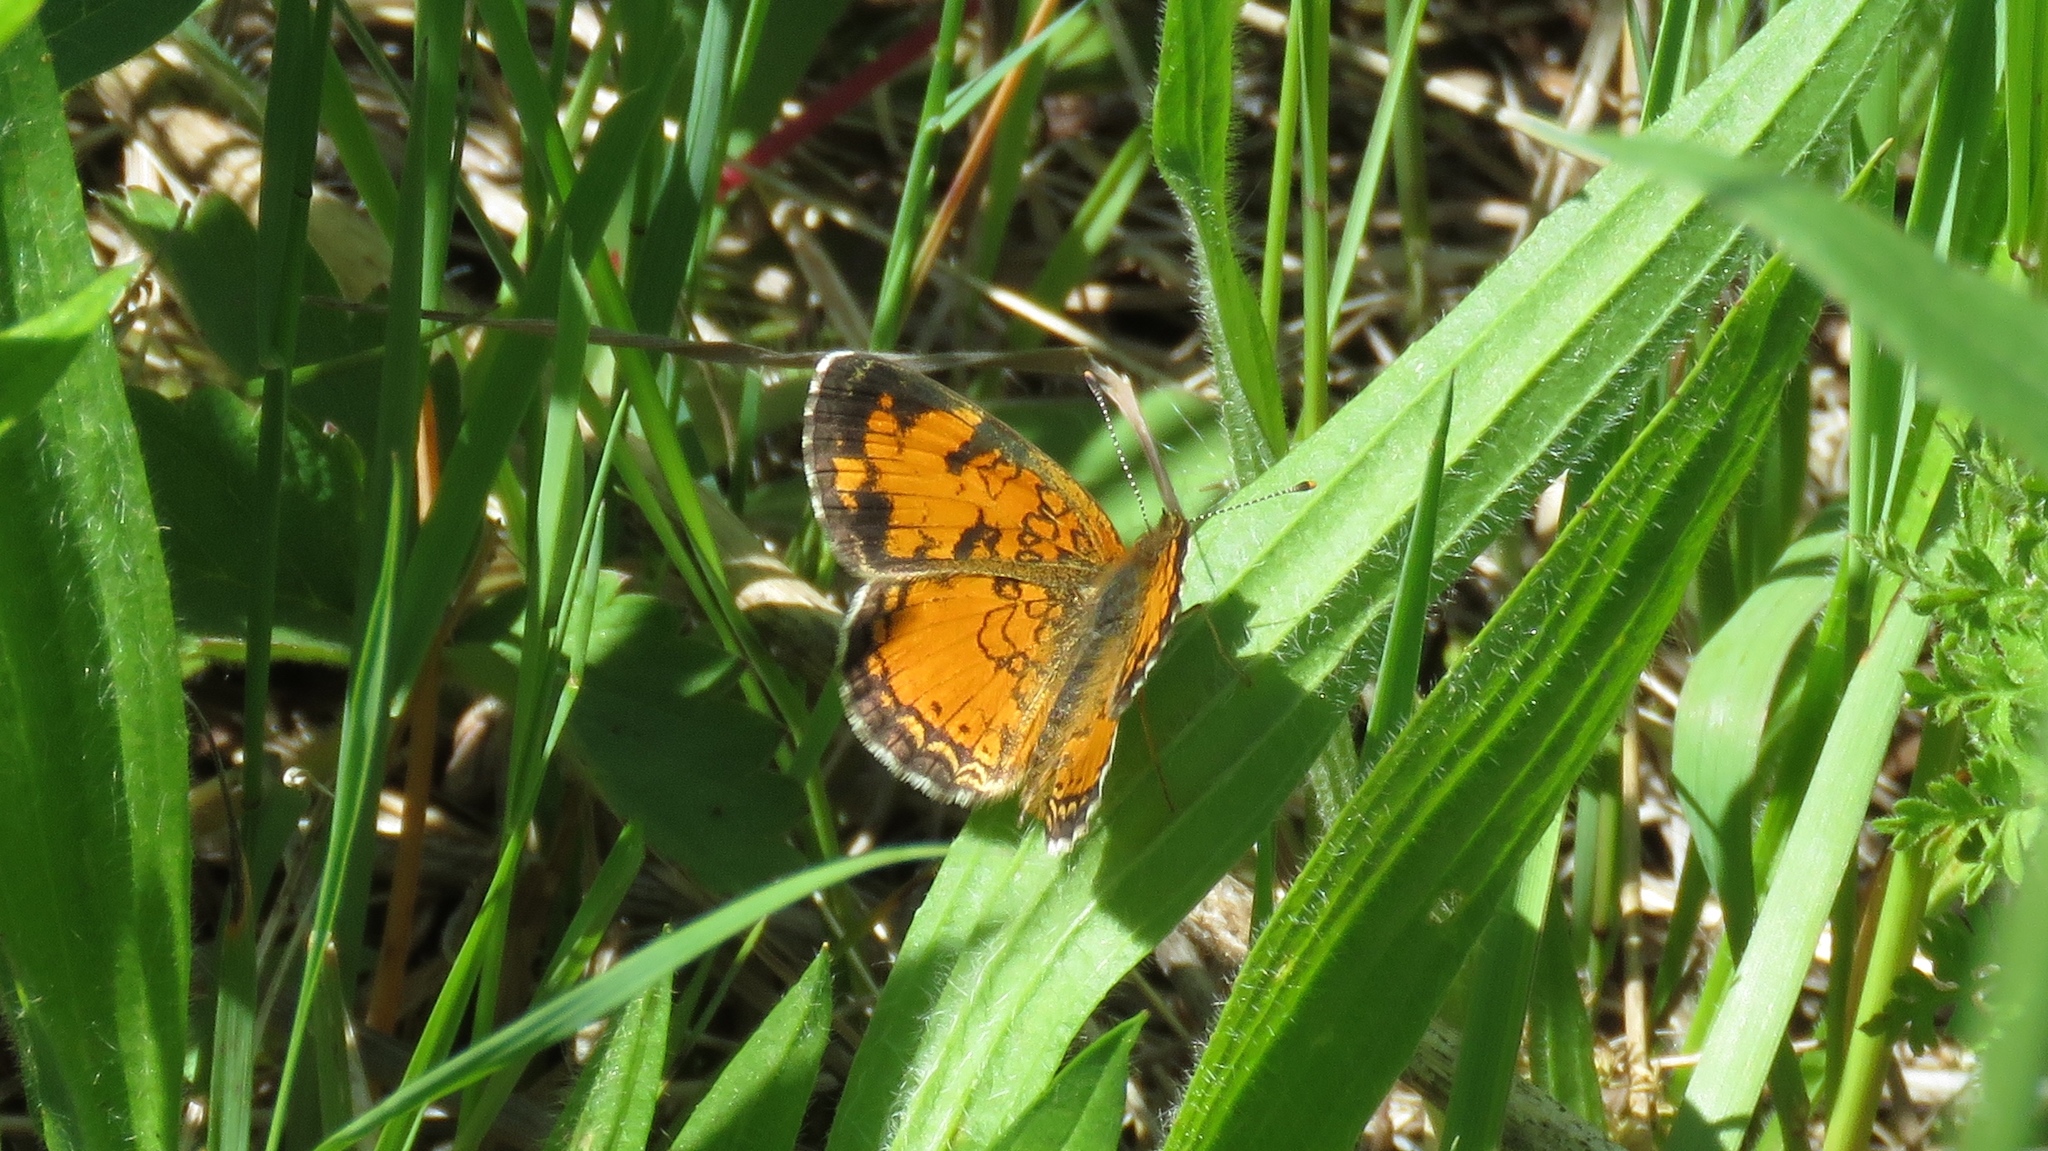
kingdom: Animalia
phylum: Arthropoda
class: Insecta
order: Lepidoptera
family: Nymphalidae
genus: Phyciodes
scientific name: Phyciodes tharos
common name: Pearl crescent
